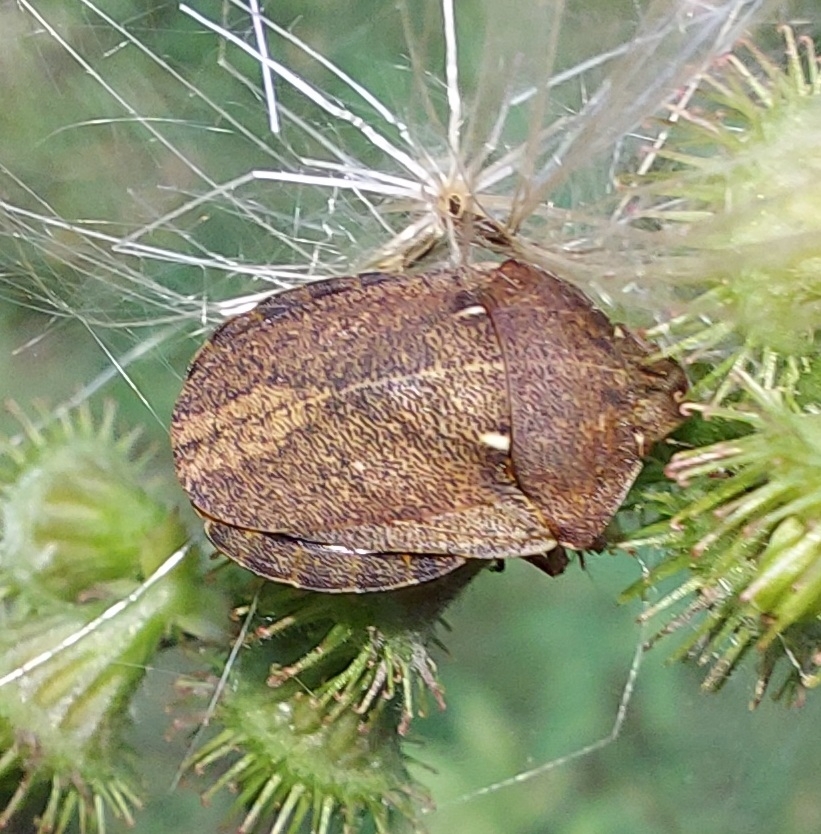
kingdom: Animalia
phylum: Arthropoda
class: Insecta
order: Hemiptera
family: Scutelleridae
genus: Eurygaster
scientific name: Eurygaster testudinaria
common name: Tortoise bug
